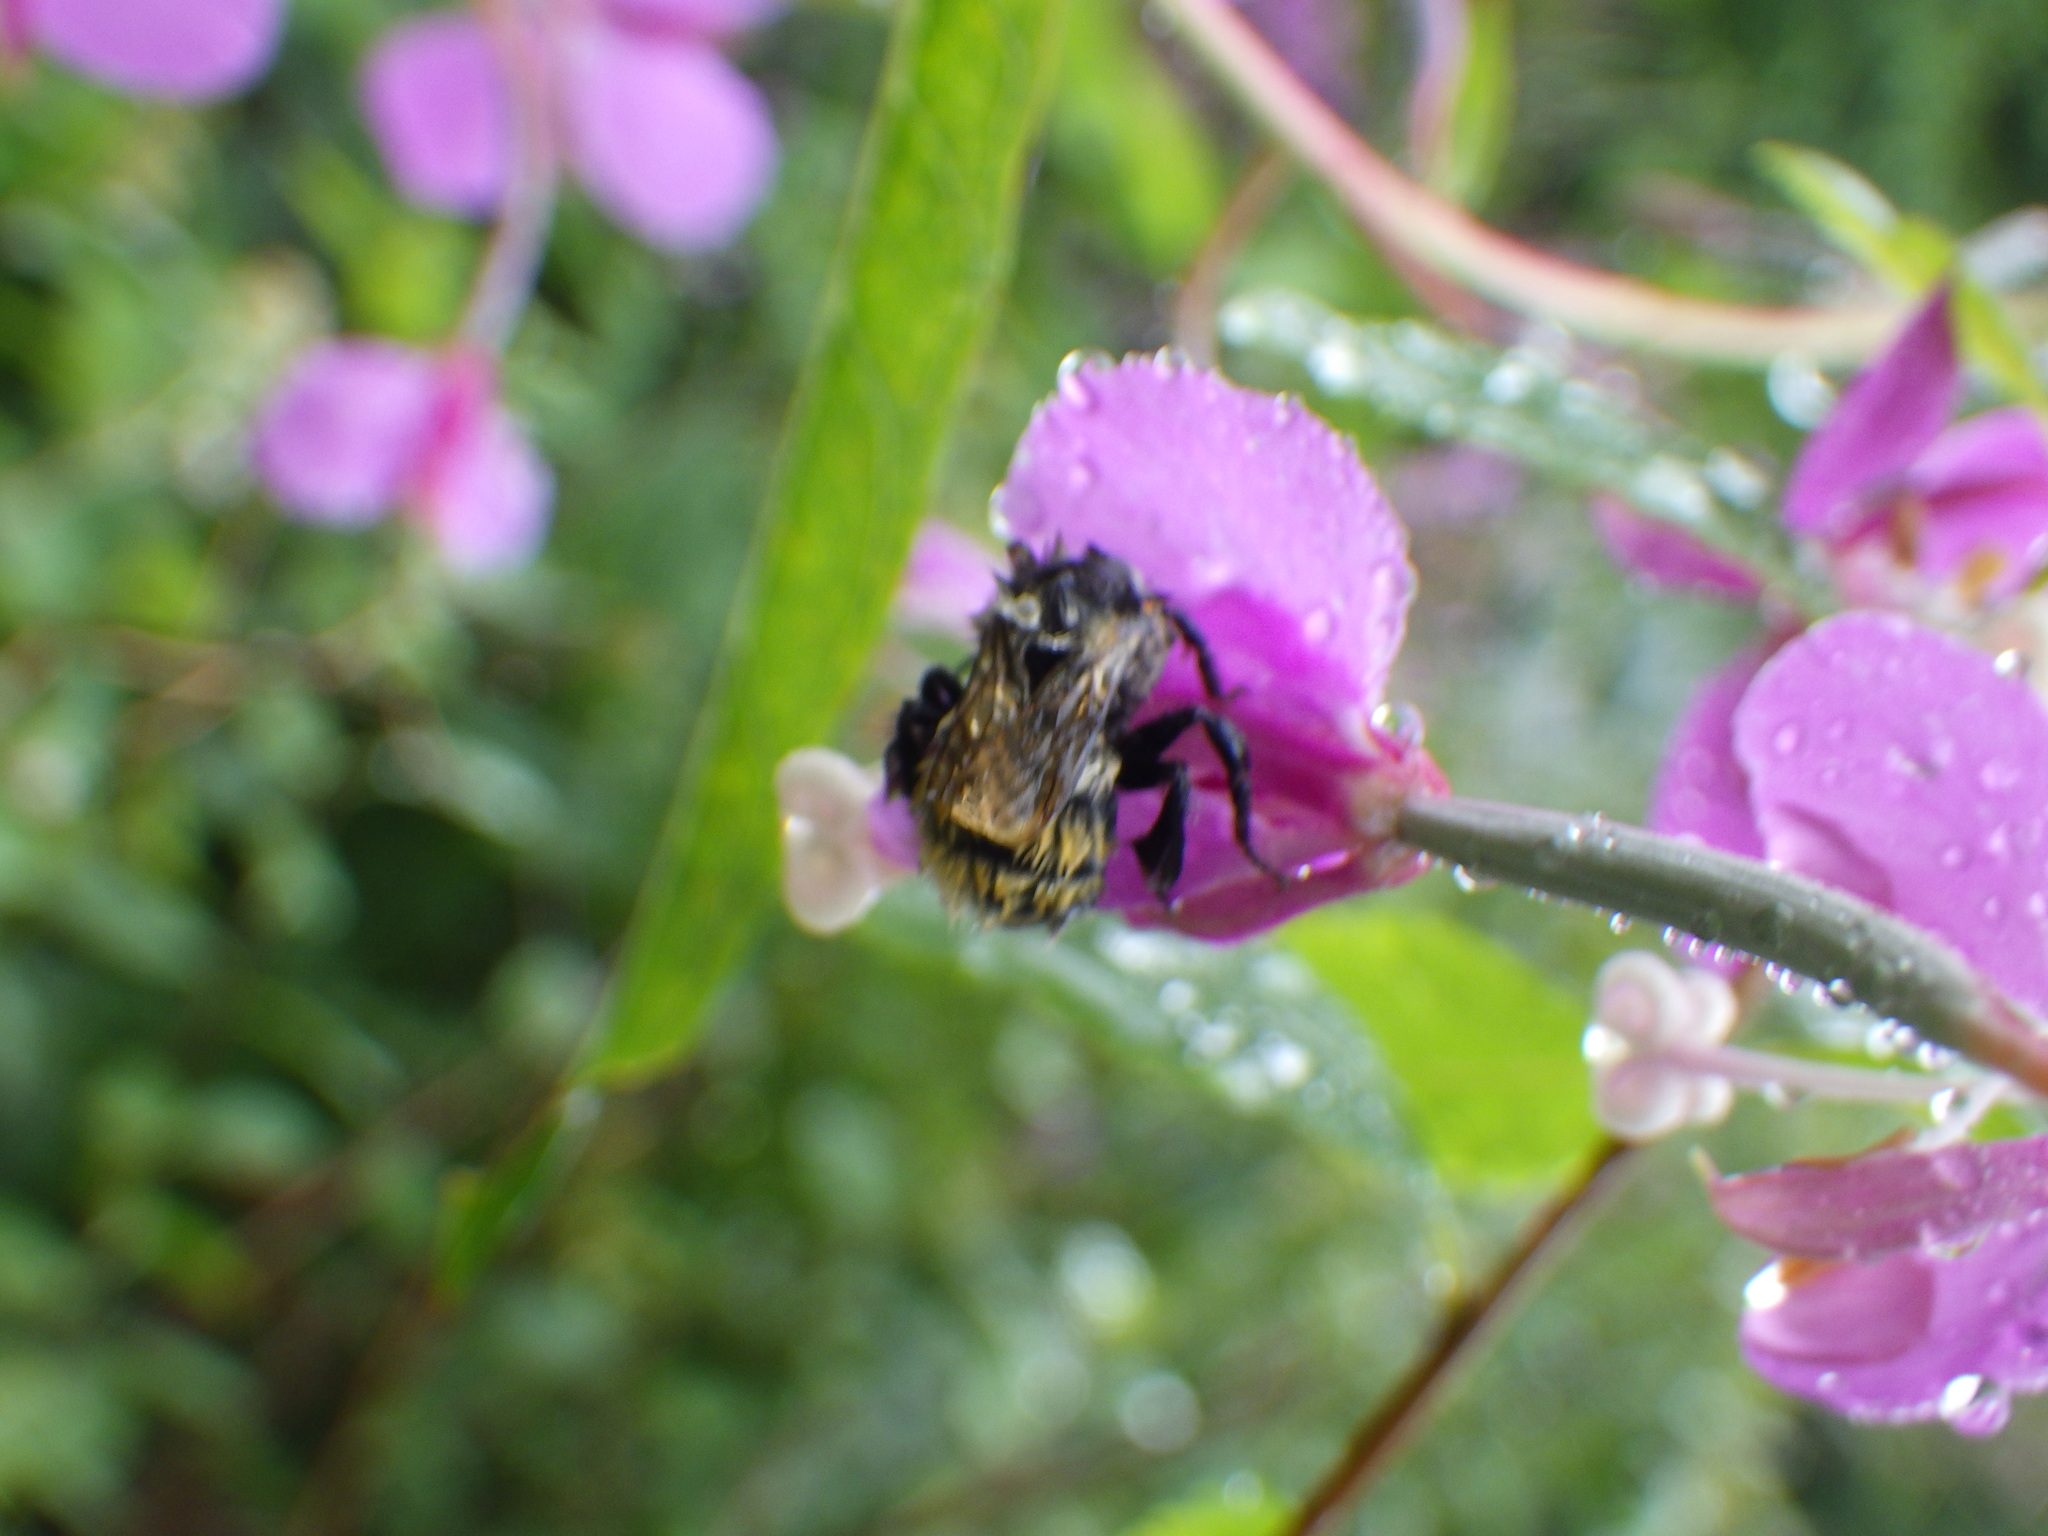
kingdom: Animalia
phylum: Arthropoda
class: Insecta
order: Hymenoptera
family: Apidae
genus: Bombus
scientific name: Bombus ternarius
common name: Tri-colored bumble bee
